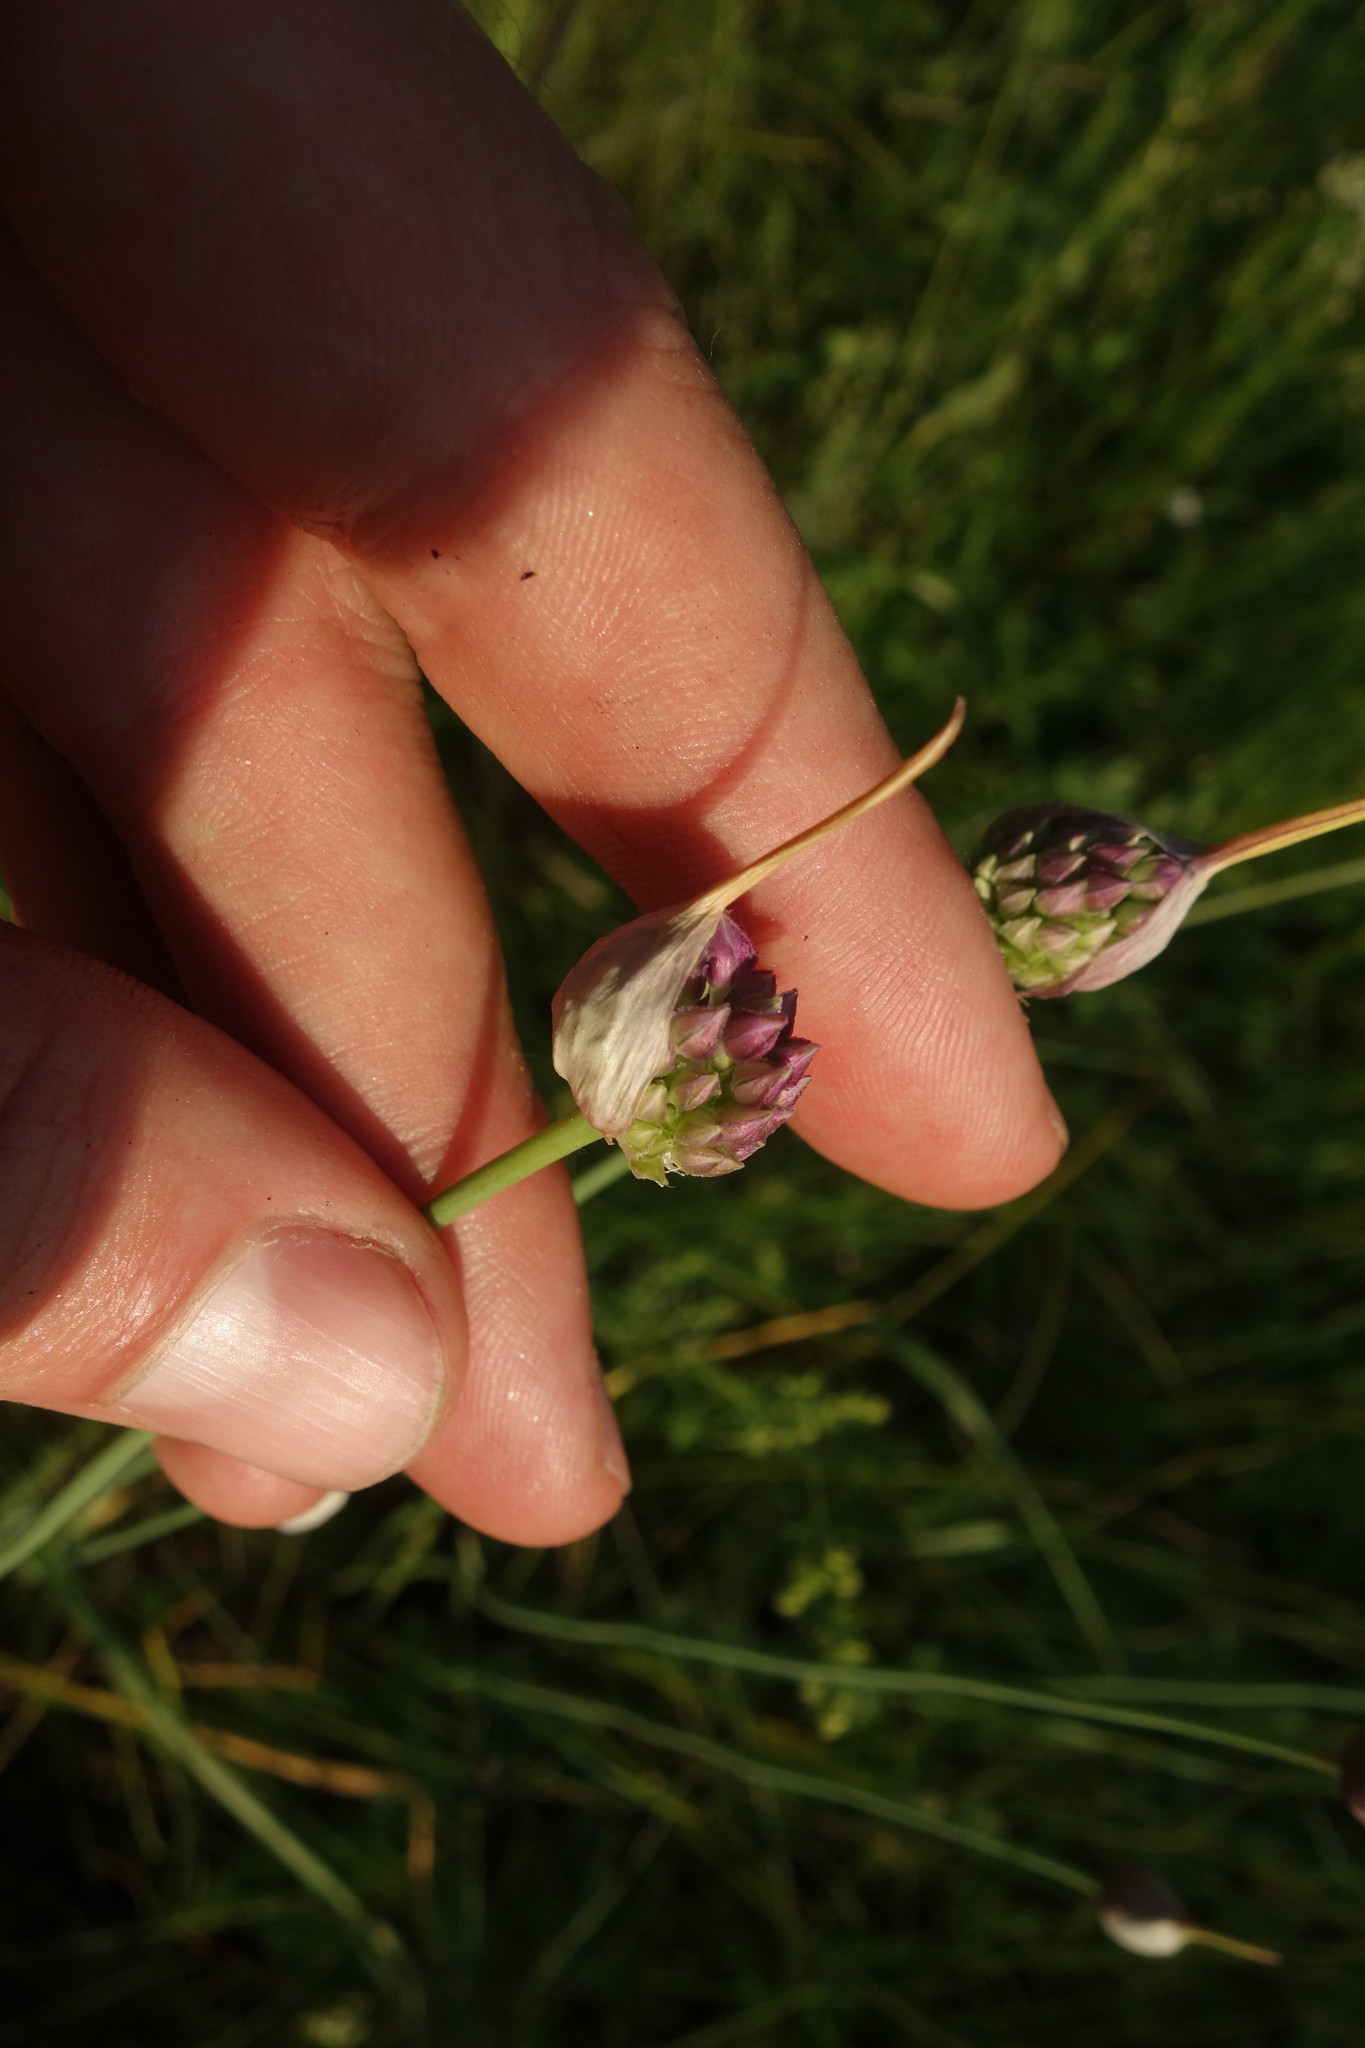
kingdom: Plantae
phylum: Tracheophyta
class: Liliopsida
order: Asparagales
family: Amaryllidaceae
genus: Allium
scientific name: Allium rotundum
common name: Sand leek
